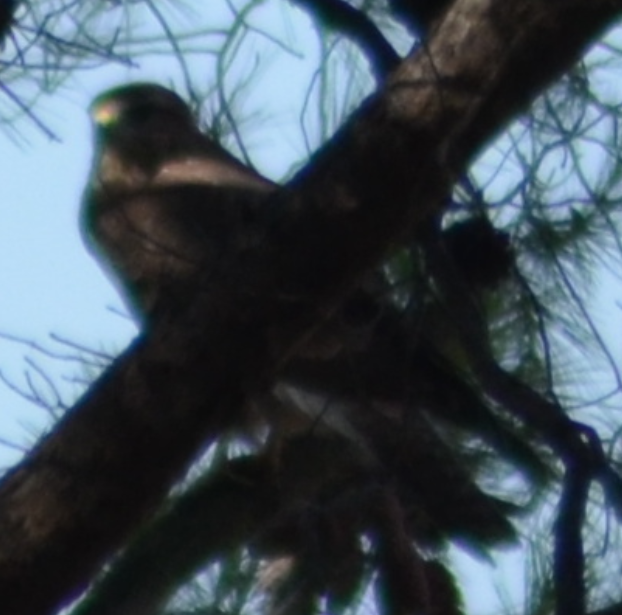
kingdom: Animalia
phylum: Chordata
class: Aves
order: Accipitriformes
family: Accipitridae
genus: Buteo
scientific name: Buteo buteo
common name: Common buzzard
